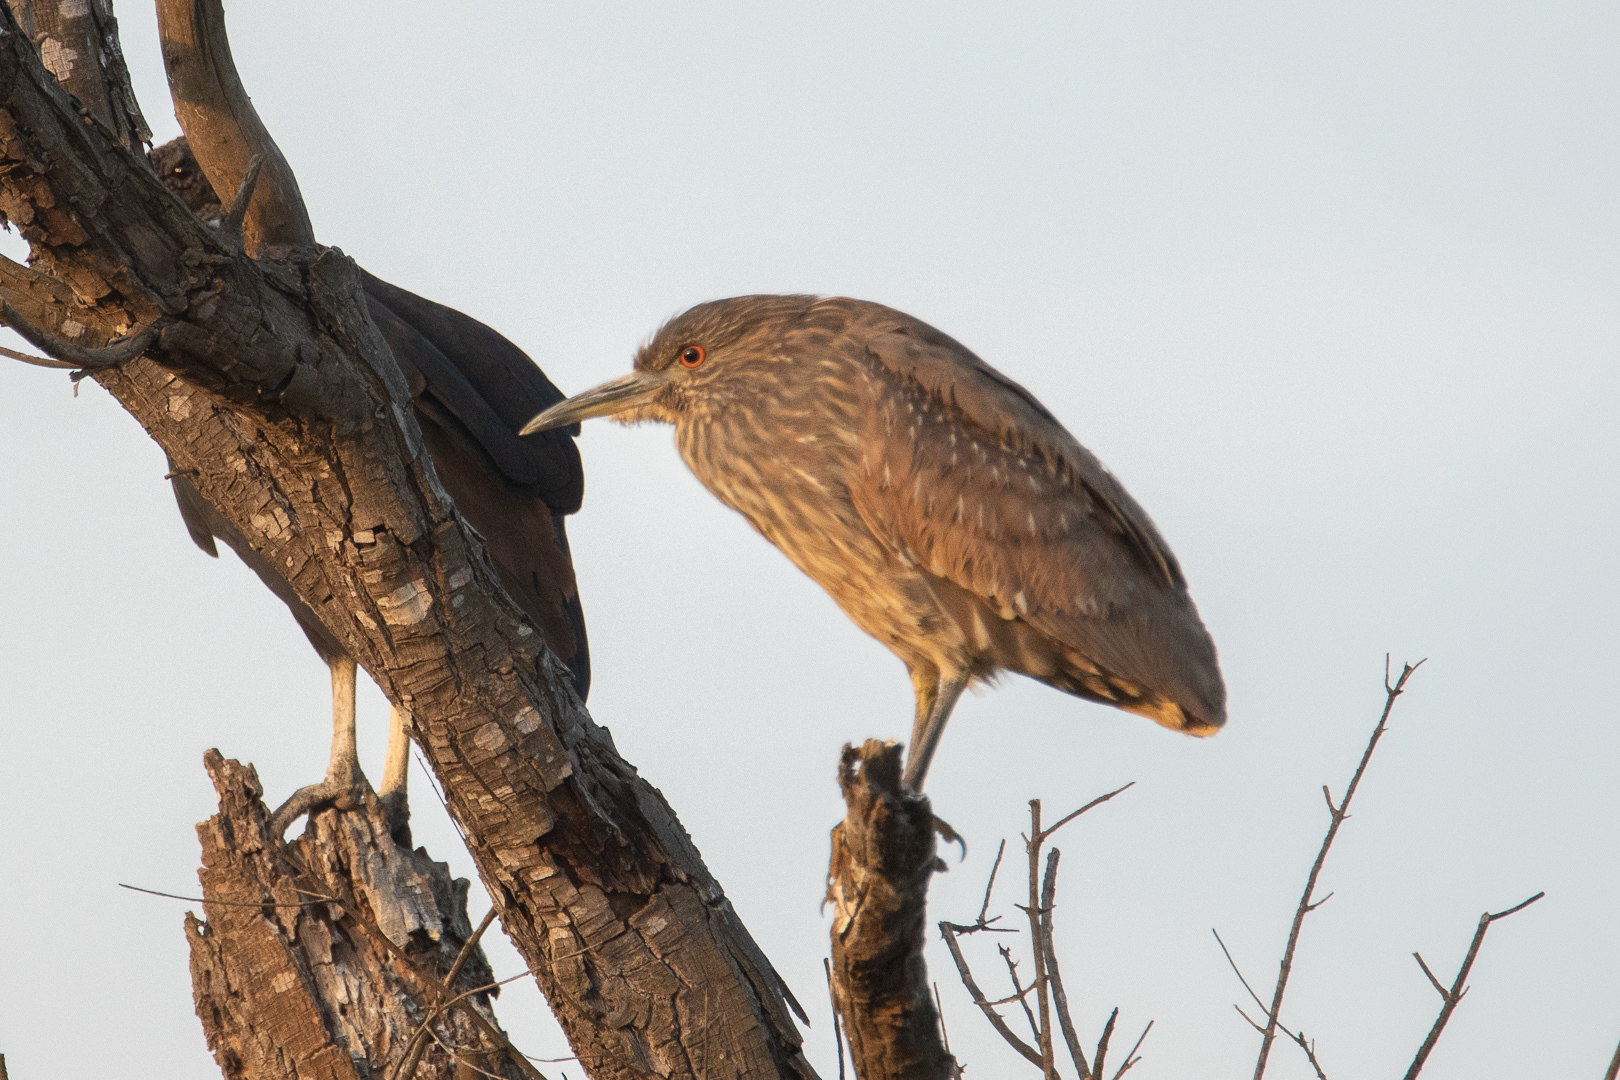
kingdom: Animalia
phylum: Chordata
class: Aves
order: Pelecaniformes
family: Ardeidae
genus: Nycticorax
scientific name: Nycticorax nycticorax
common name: Black-crowned night heron
